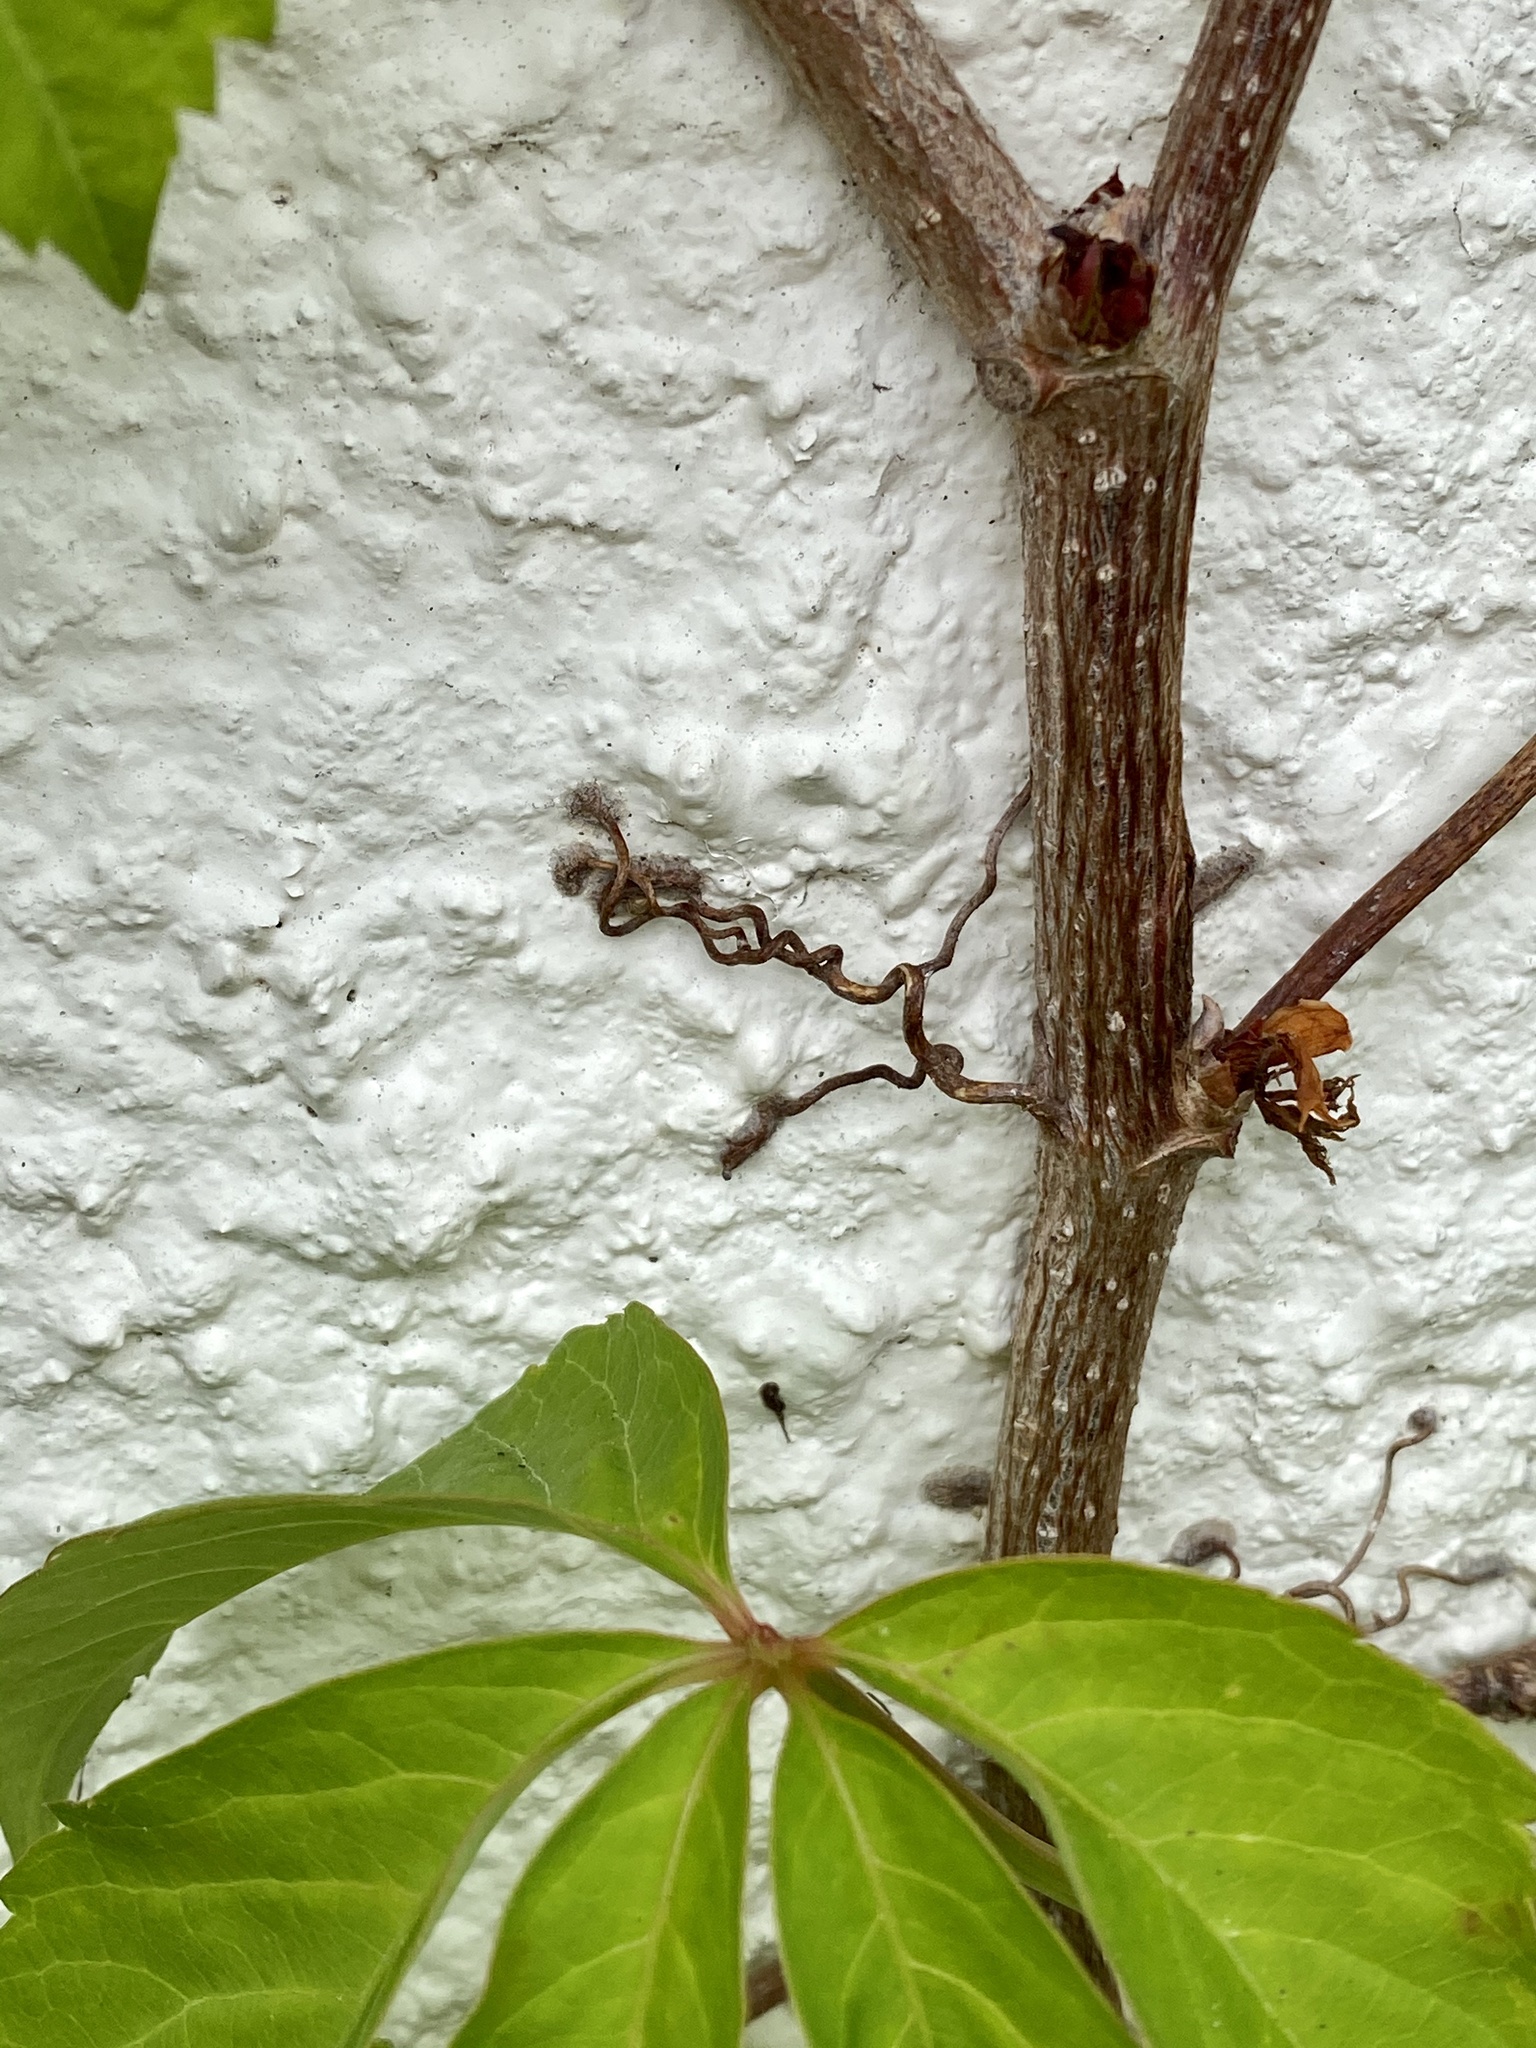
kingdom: Plantae
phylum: Tracheophyta
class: Magnoliopsida
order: Vitales
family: Vitaceae
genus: Parthenocissus
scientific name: Parthenocissus quinquefolia
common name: Virginia-creeper
